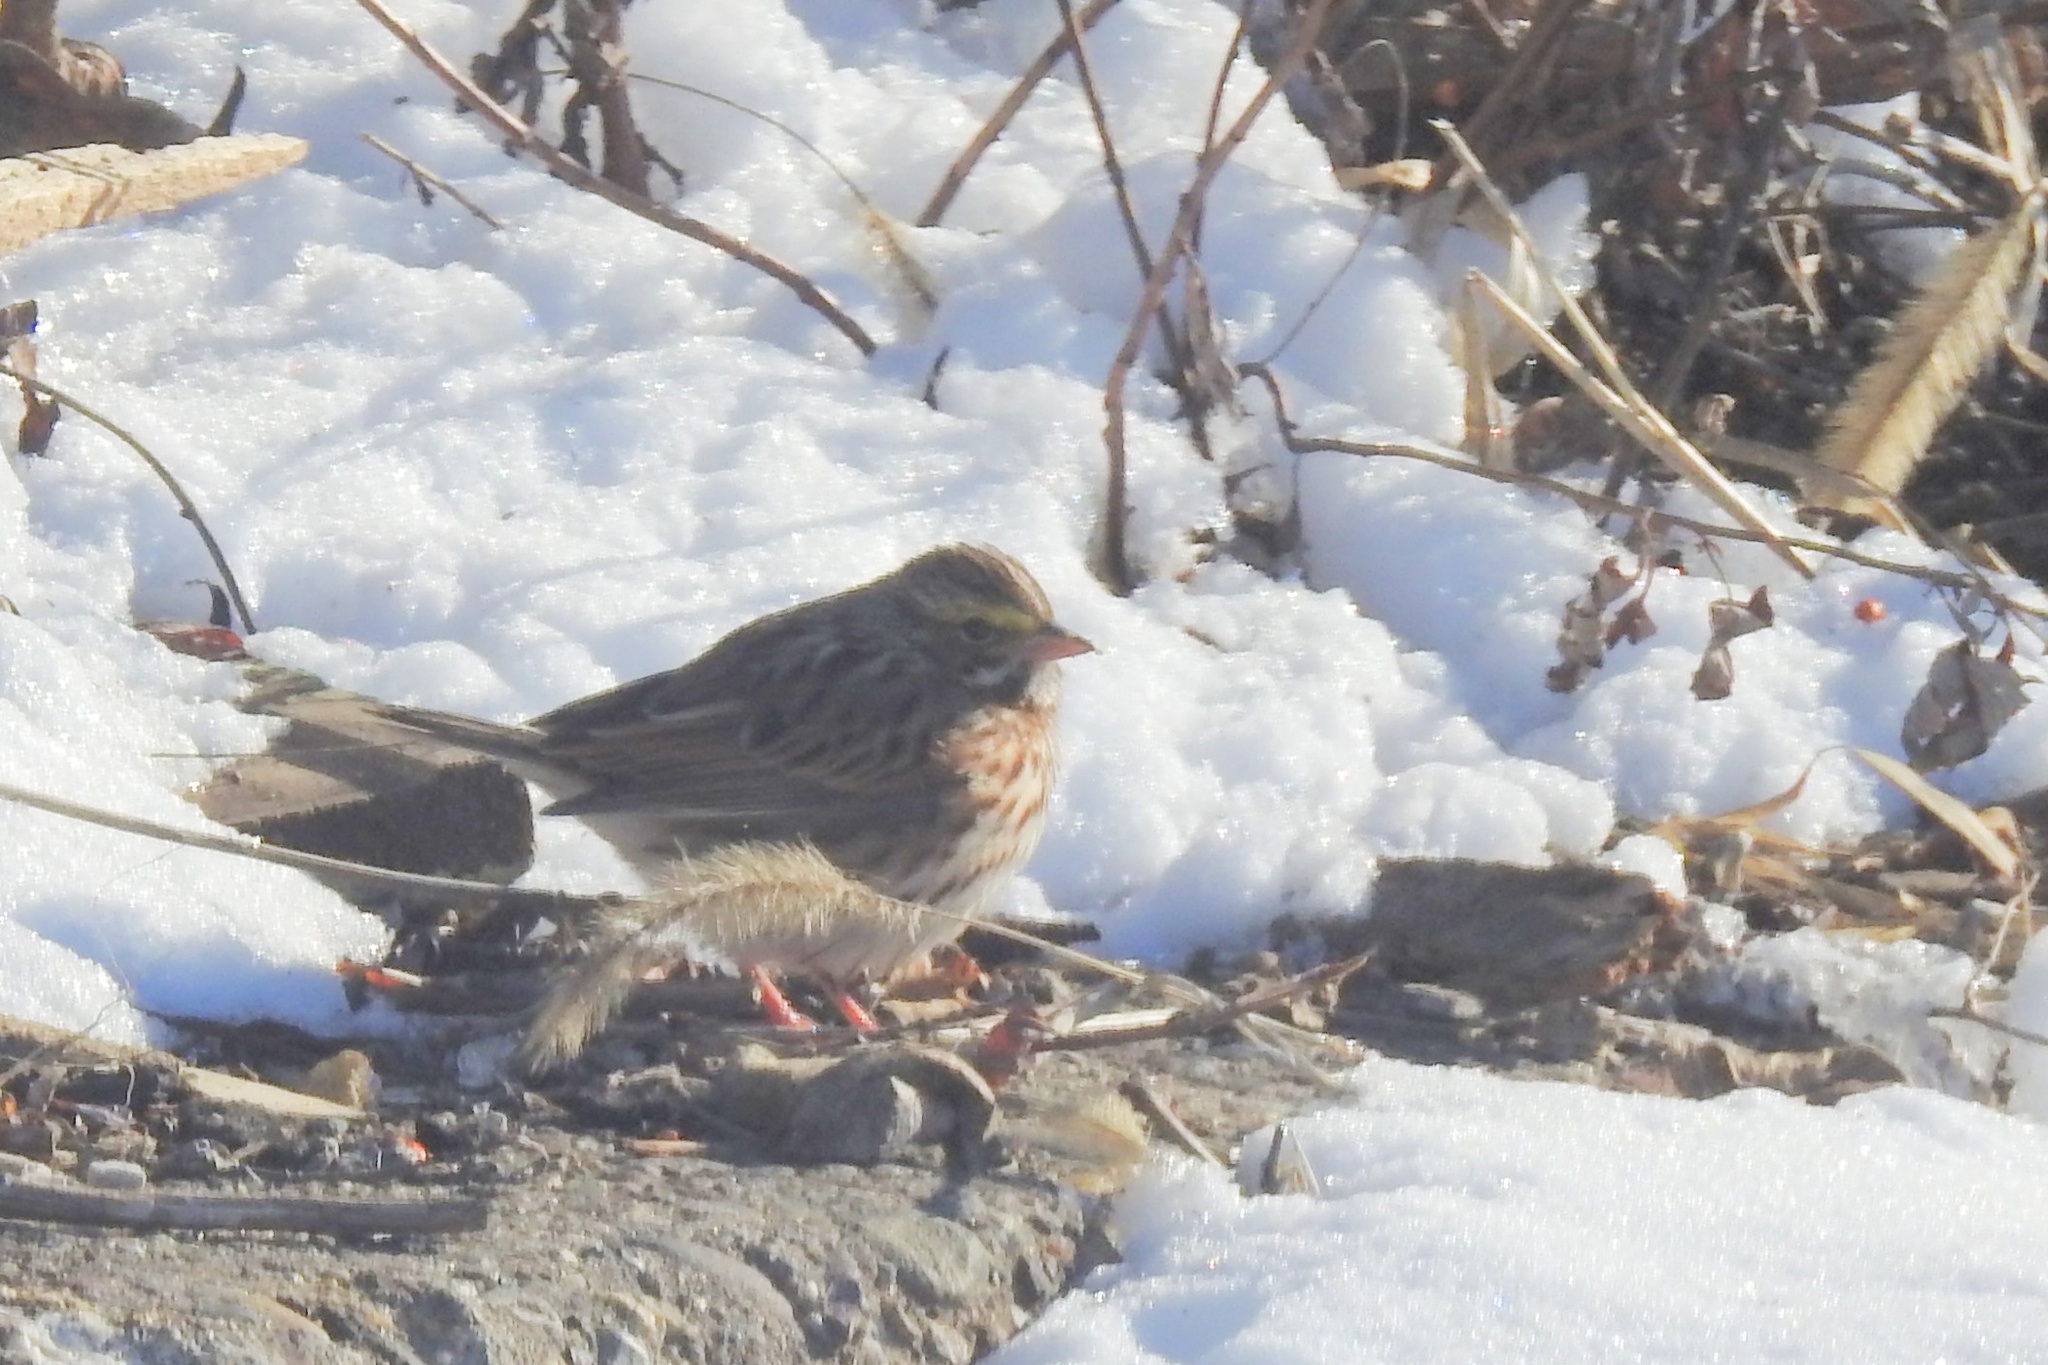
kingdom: Animalia
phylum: Chordata
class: Aves
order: Passeriformes
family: Passerellidae
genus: Passerculus
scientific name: Passerculus sandwichensis
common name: Savannah sparrow
